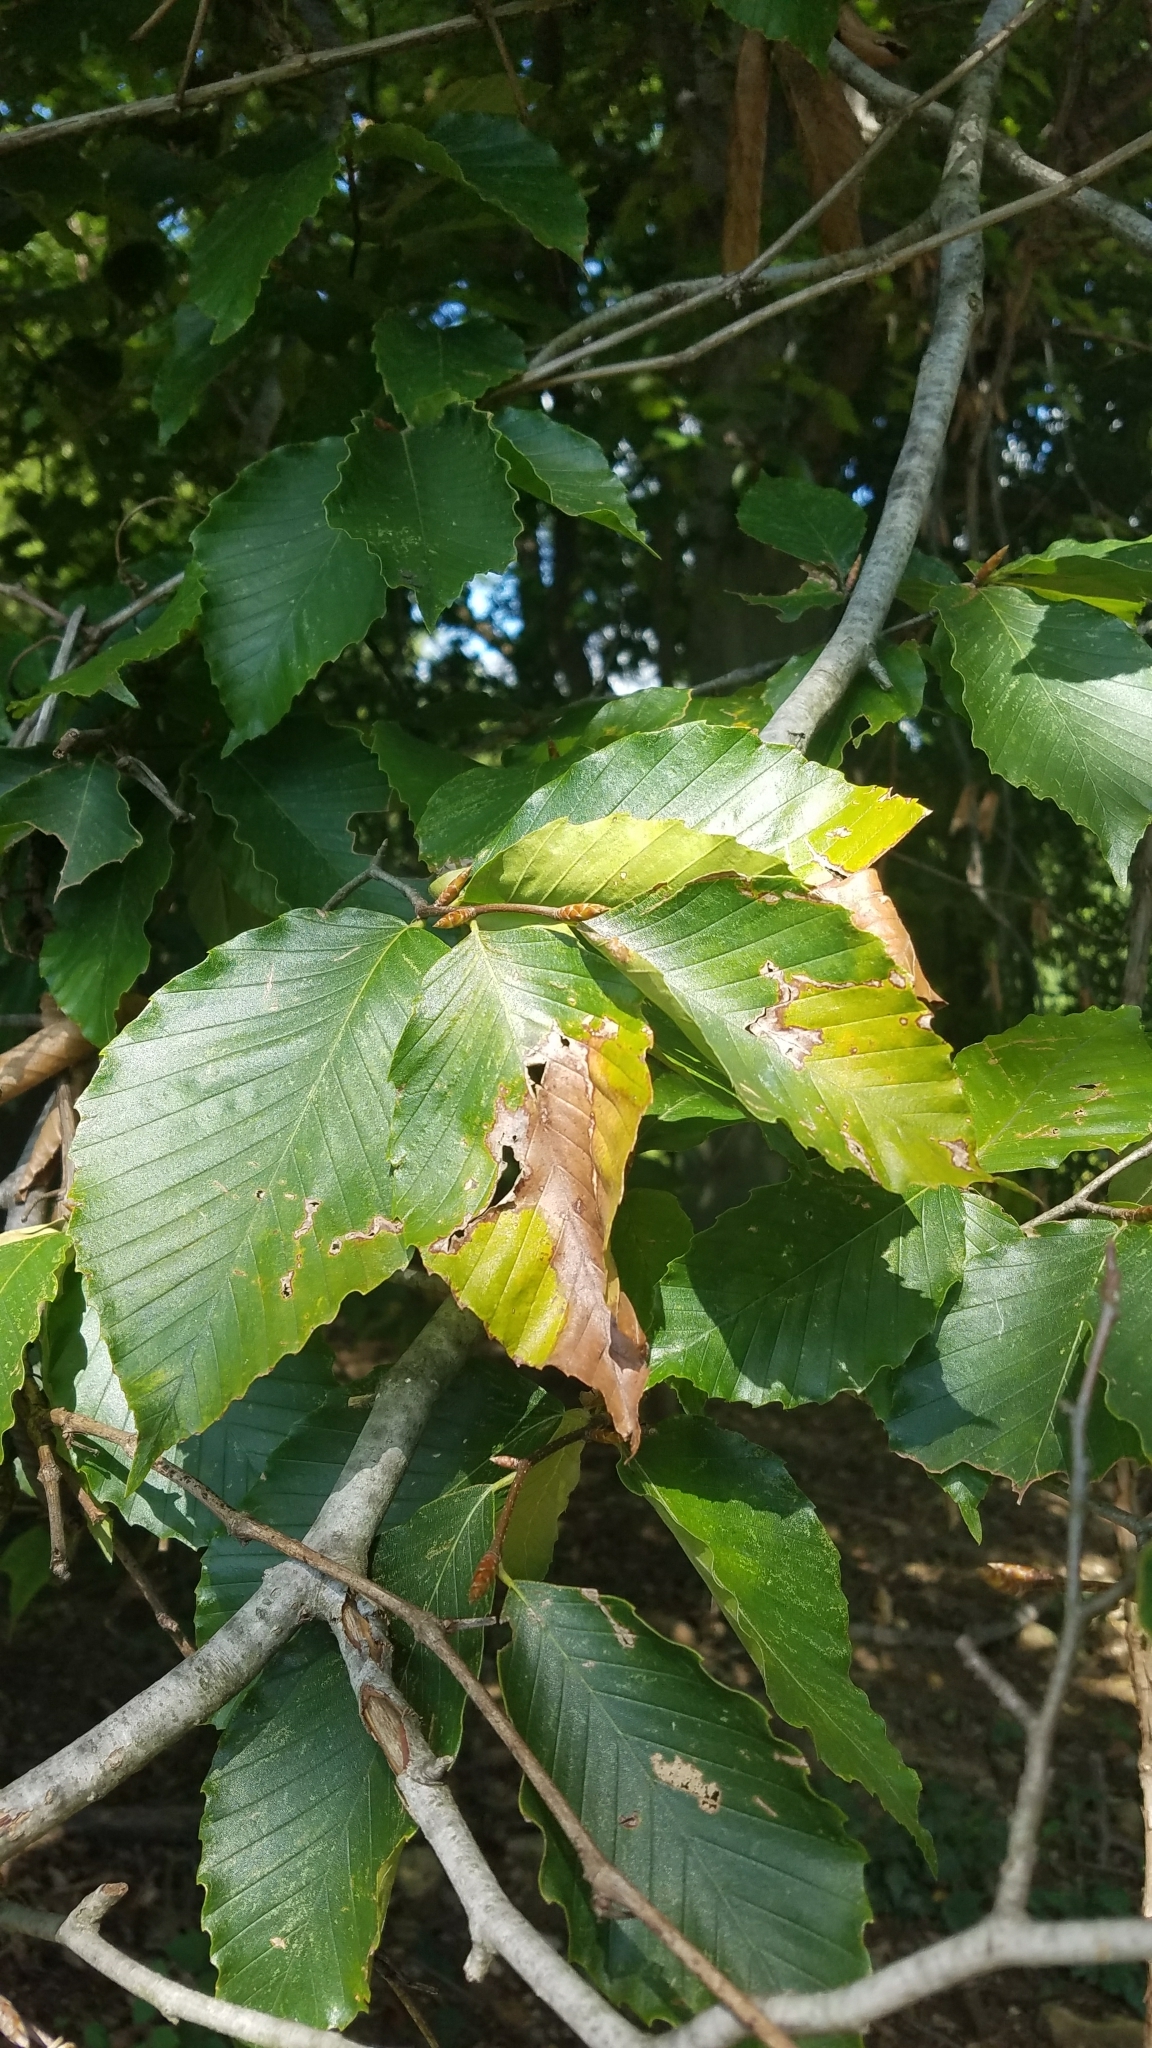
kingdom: Plantae
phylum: Tracheophyta
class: Magnoliopsida
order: Fagales
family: Fagaceae
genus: Fagus
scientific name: Fagus grandifolia
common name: American beech
